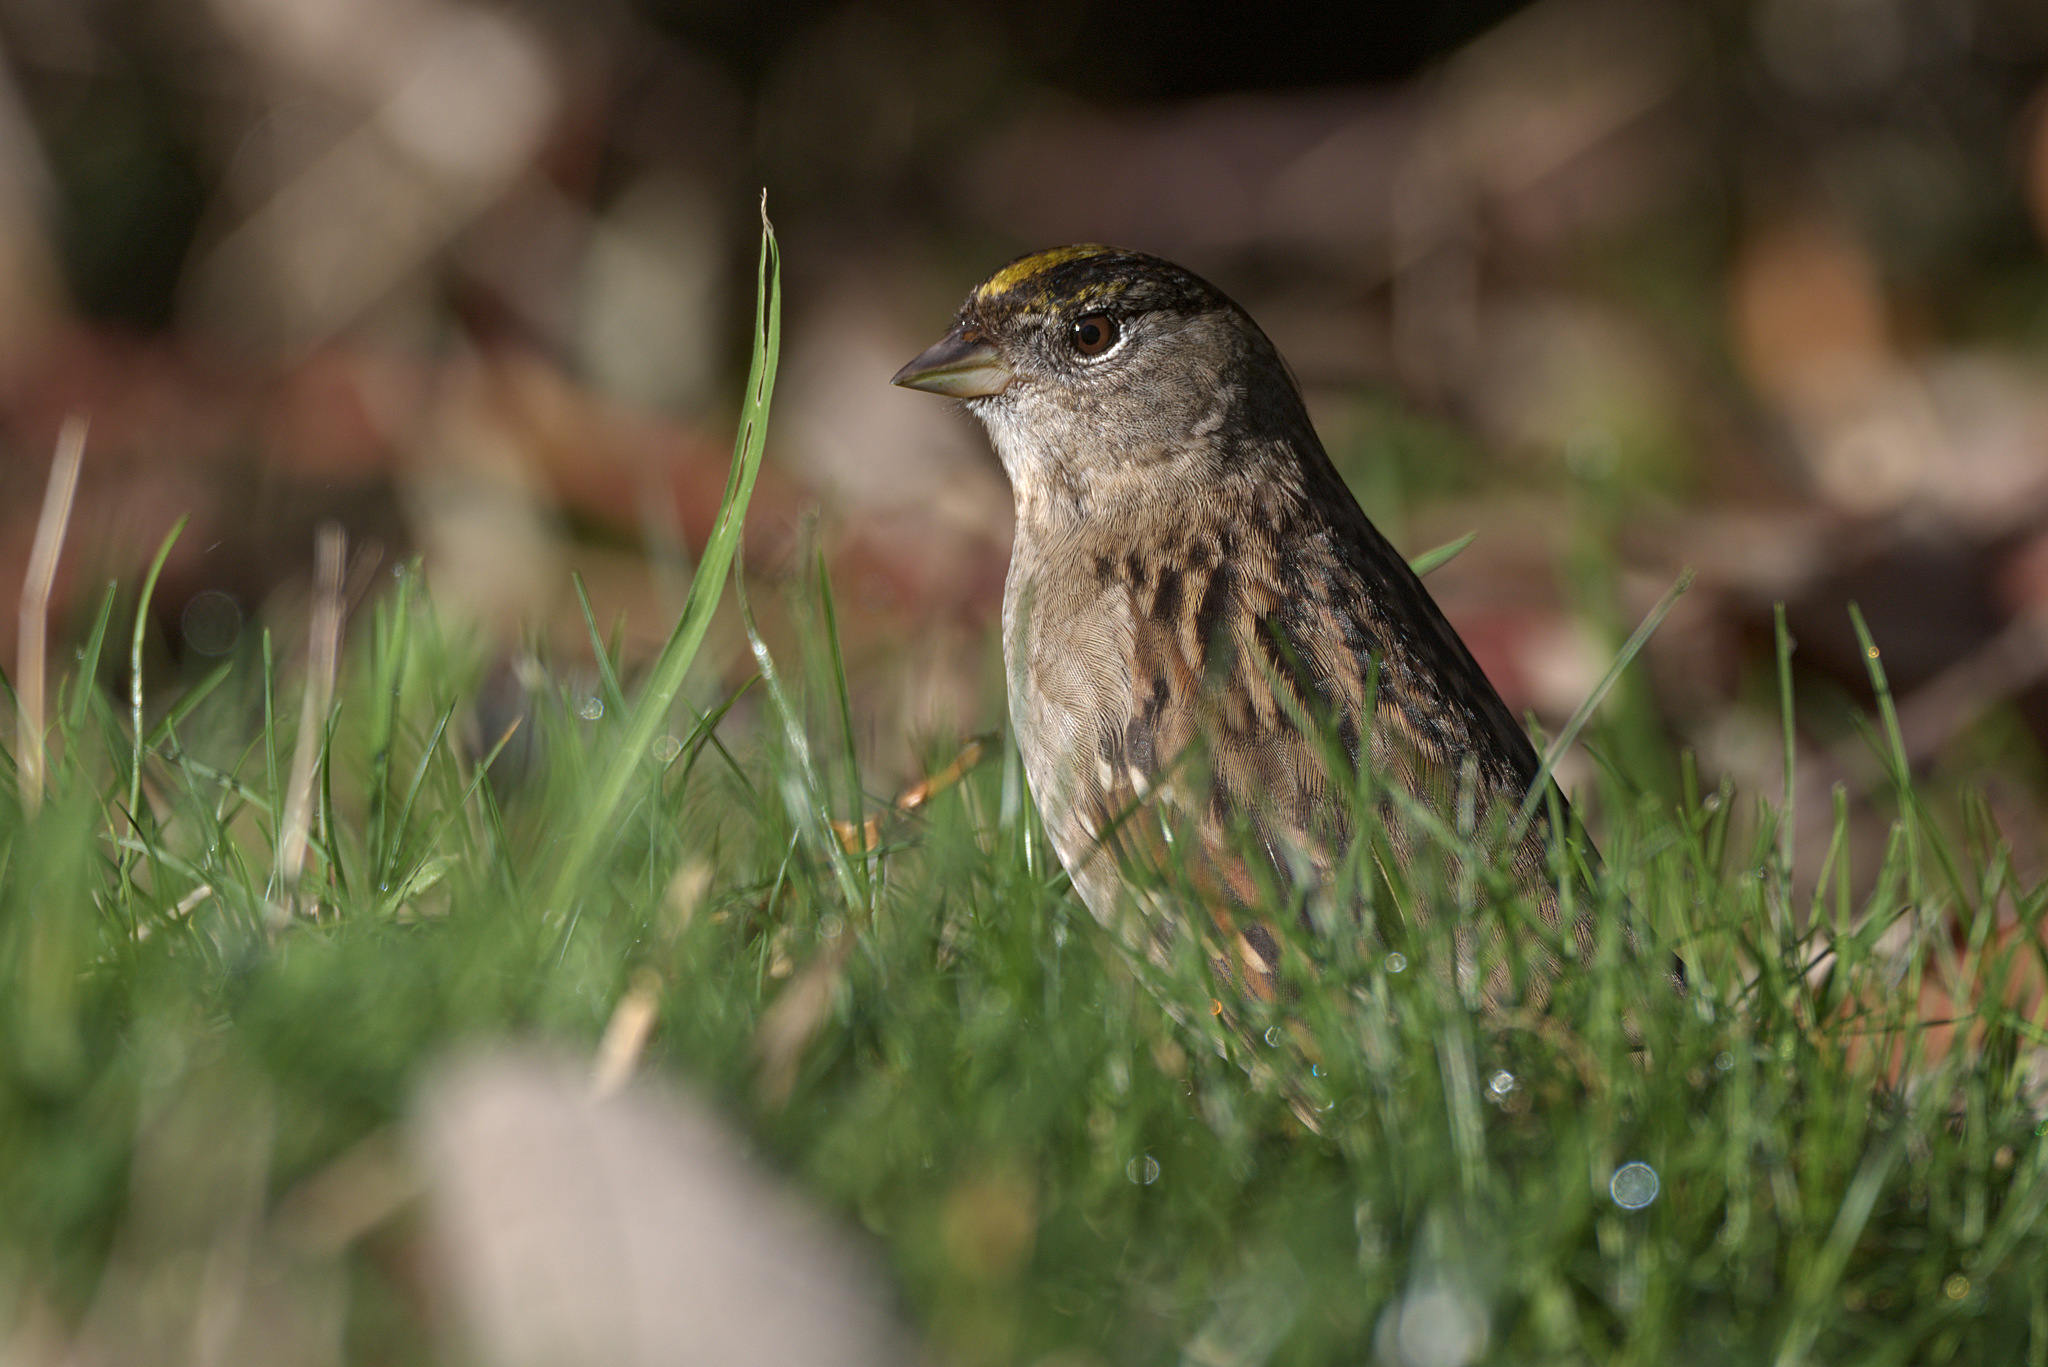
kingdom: Animalia
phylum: Chordata
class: Aves
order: Passeriformes
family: Passerellidae
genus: Zonotrichia
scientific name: Zonotrichia atricapilla
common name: Golden-crowned sparrow
